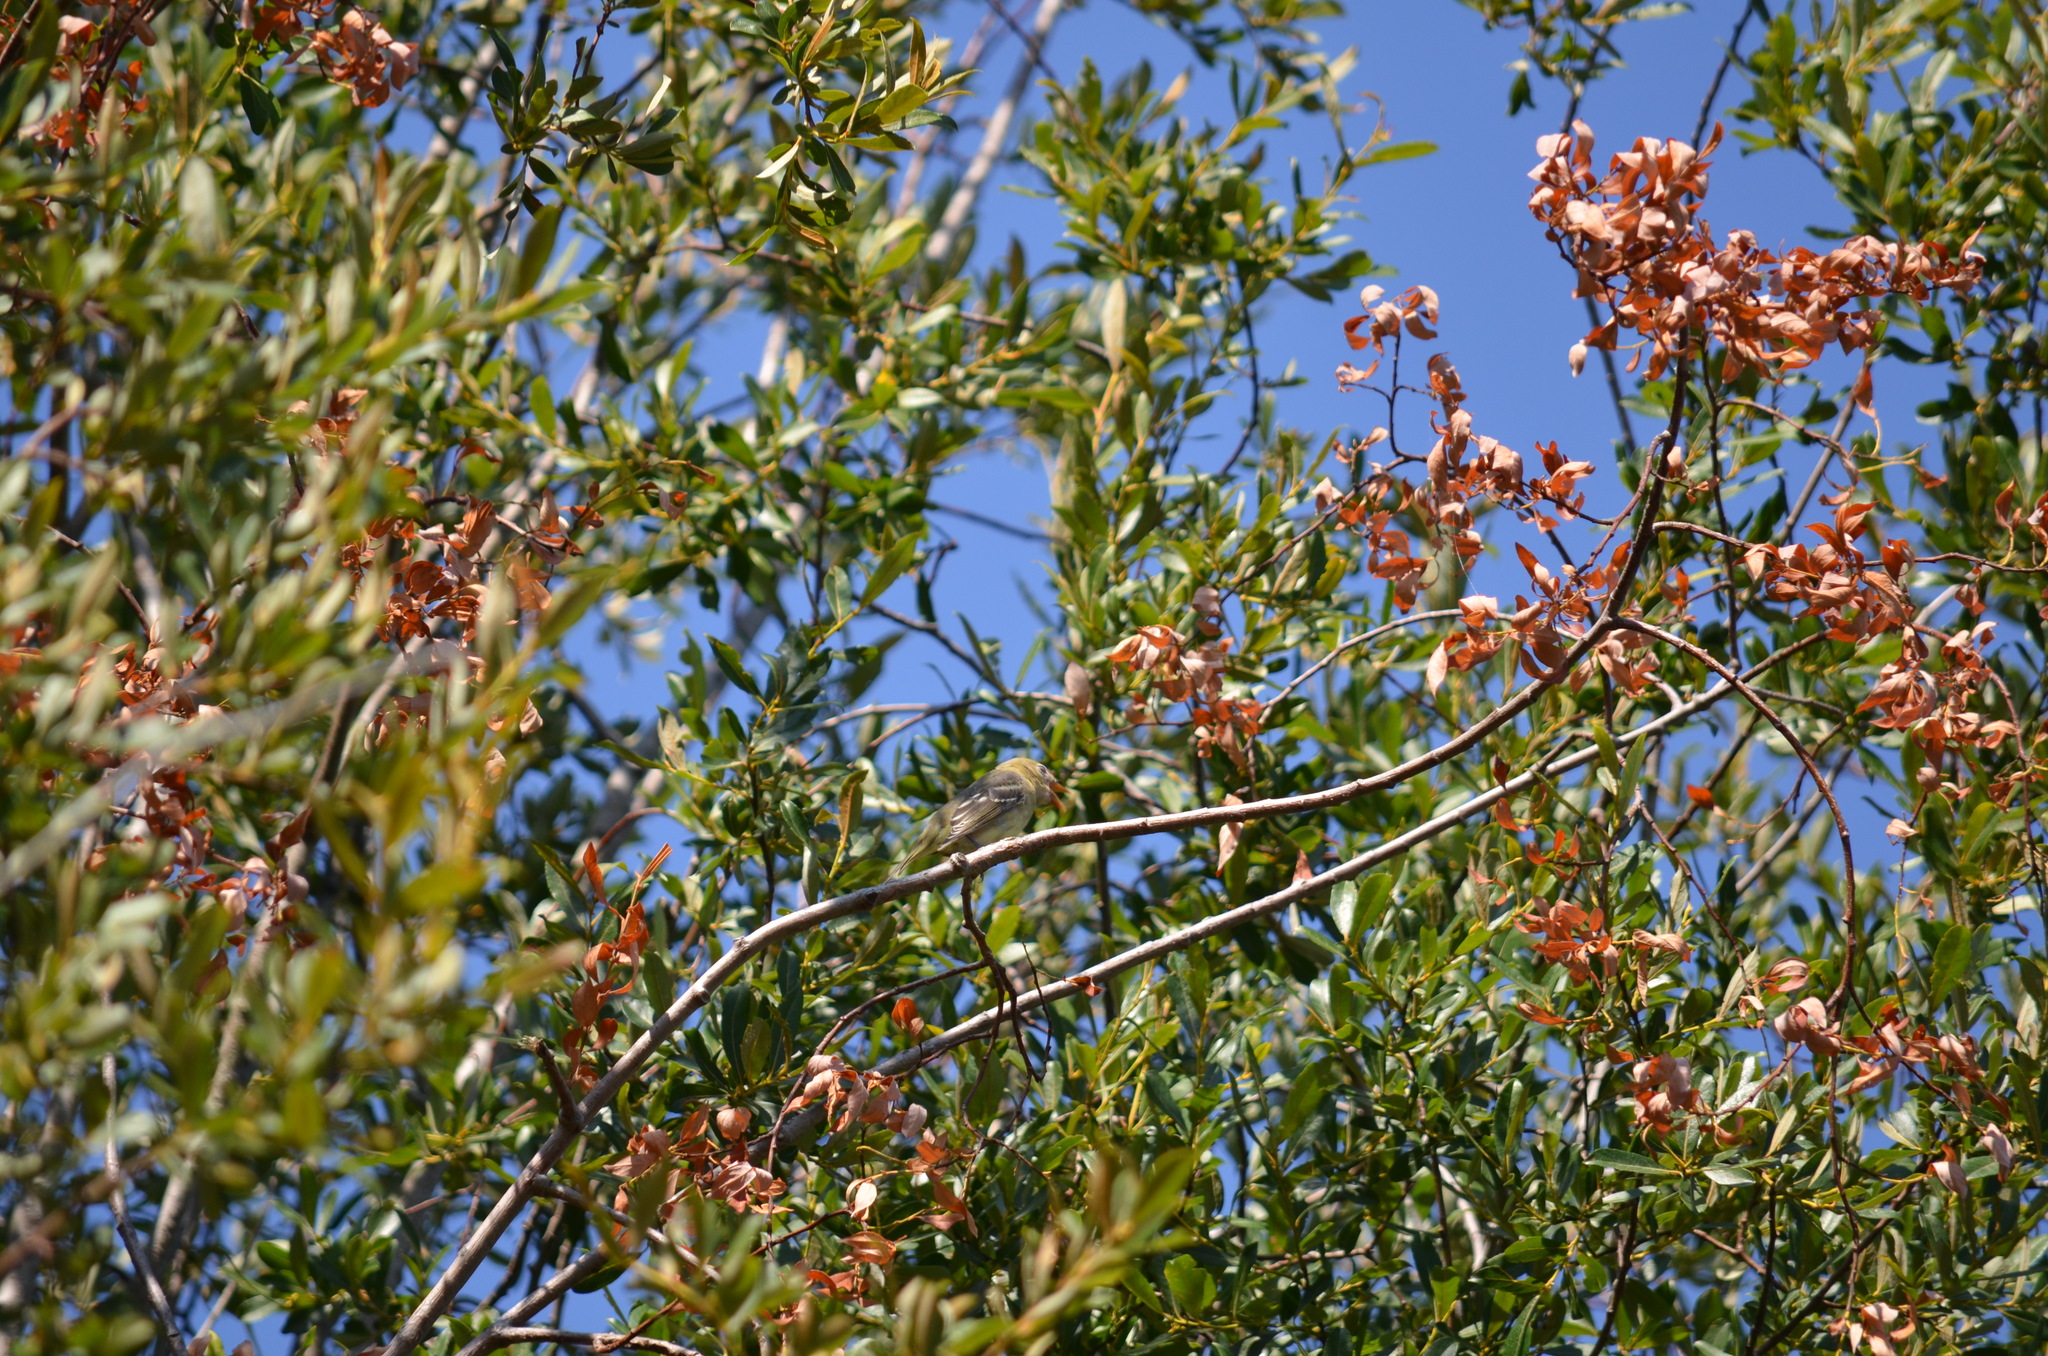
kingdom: Animalia
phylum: Chordata
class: Aves
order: Passeriformes
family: Cardinalidae
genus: Piranga
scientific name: Piranga ludoviciana
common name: Western tanager
